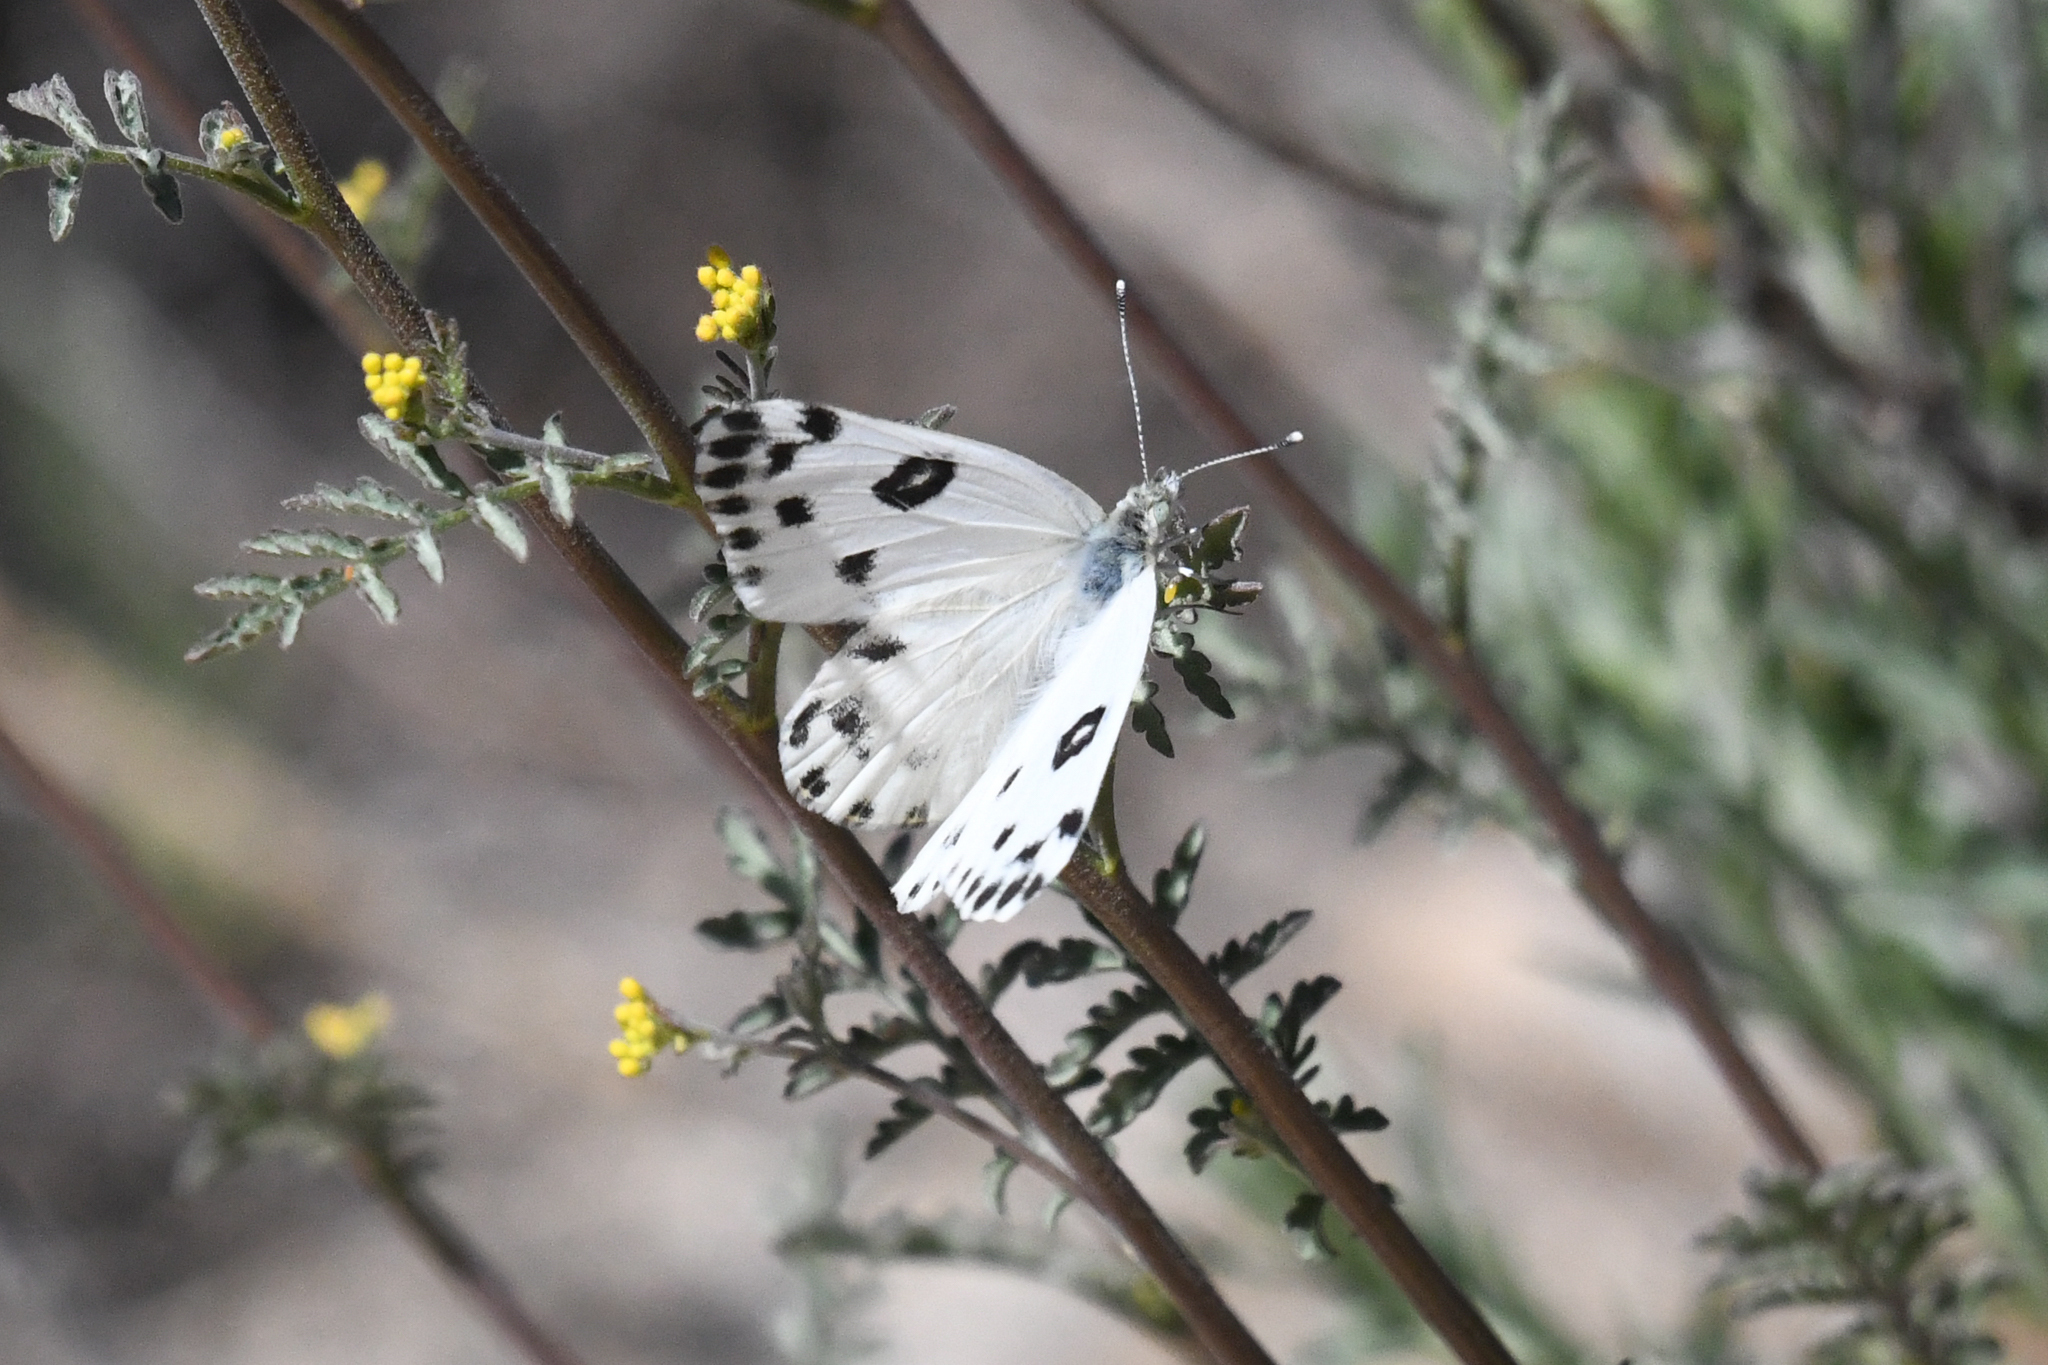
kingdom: Animalia
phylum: Arthropoda
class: Insecta
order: Lepidoptera
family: Pieridae
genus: Pontia
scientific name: Pontia beckerii
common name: Becker's white
